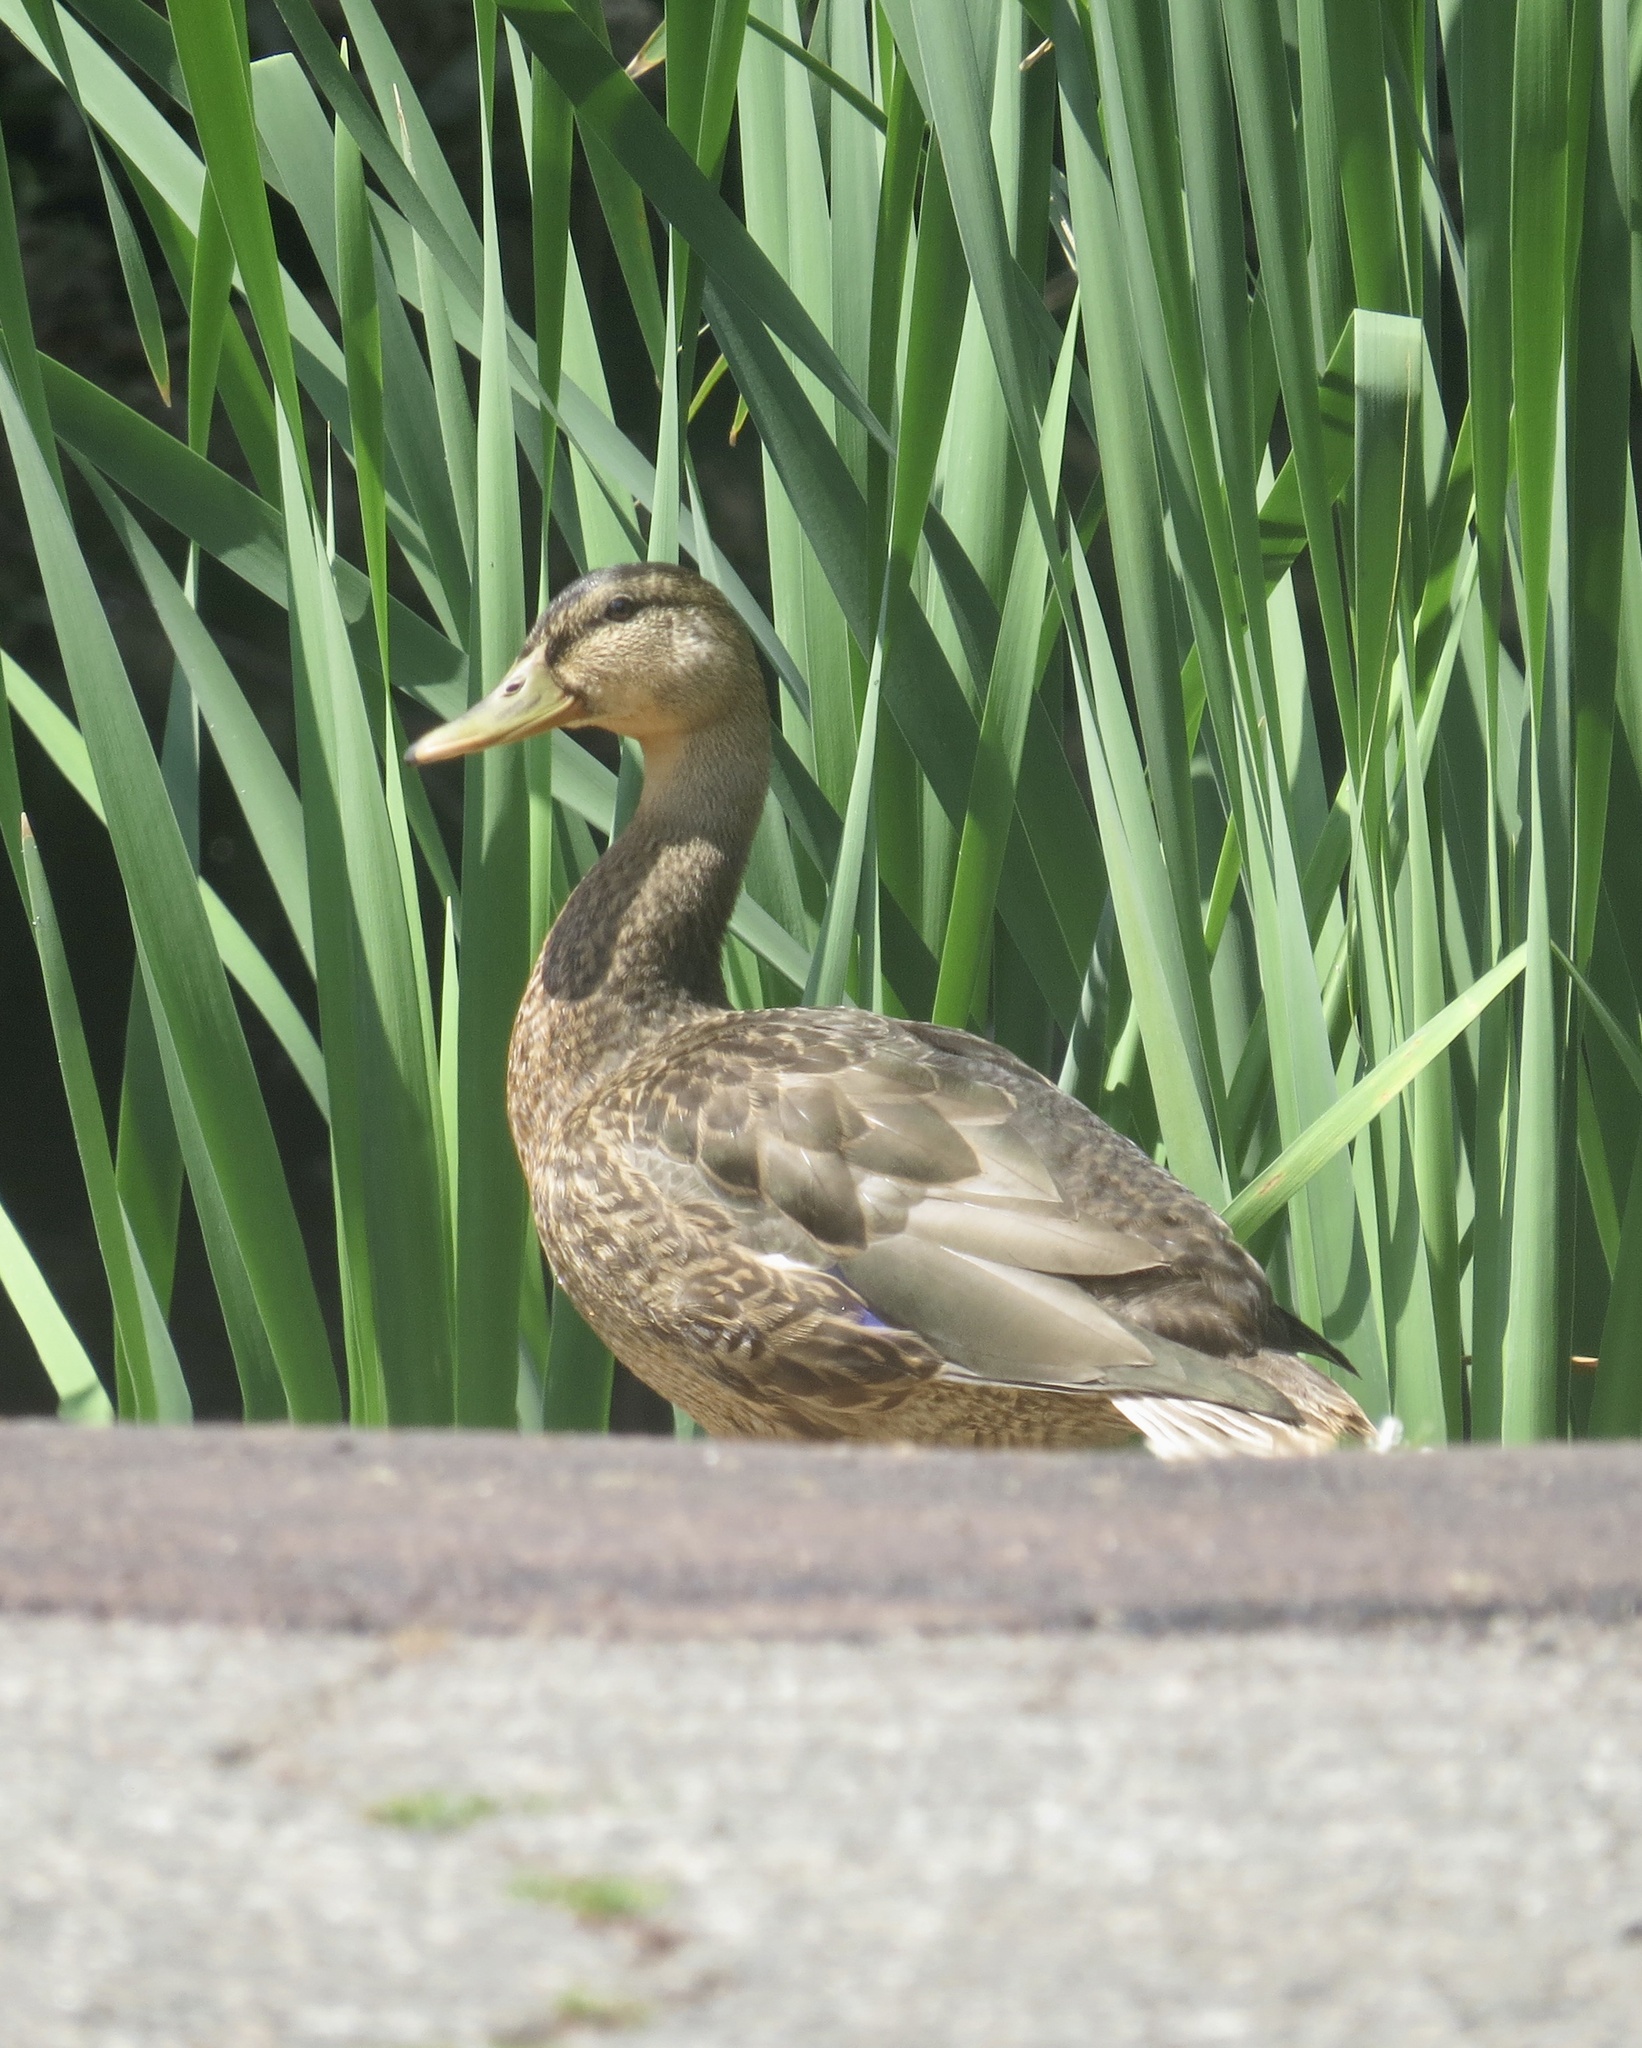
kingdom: Animalia
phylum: Chordata
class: Aves
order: Anseriformes
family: Anatidae
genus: Anas
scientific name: Anas platyrhynchos
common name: Mallard
